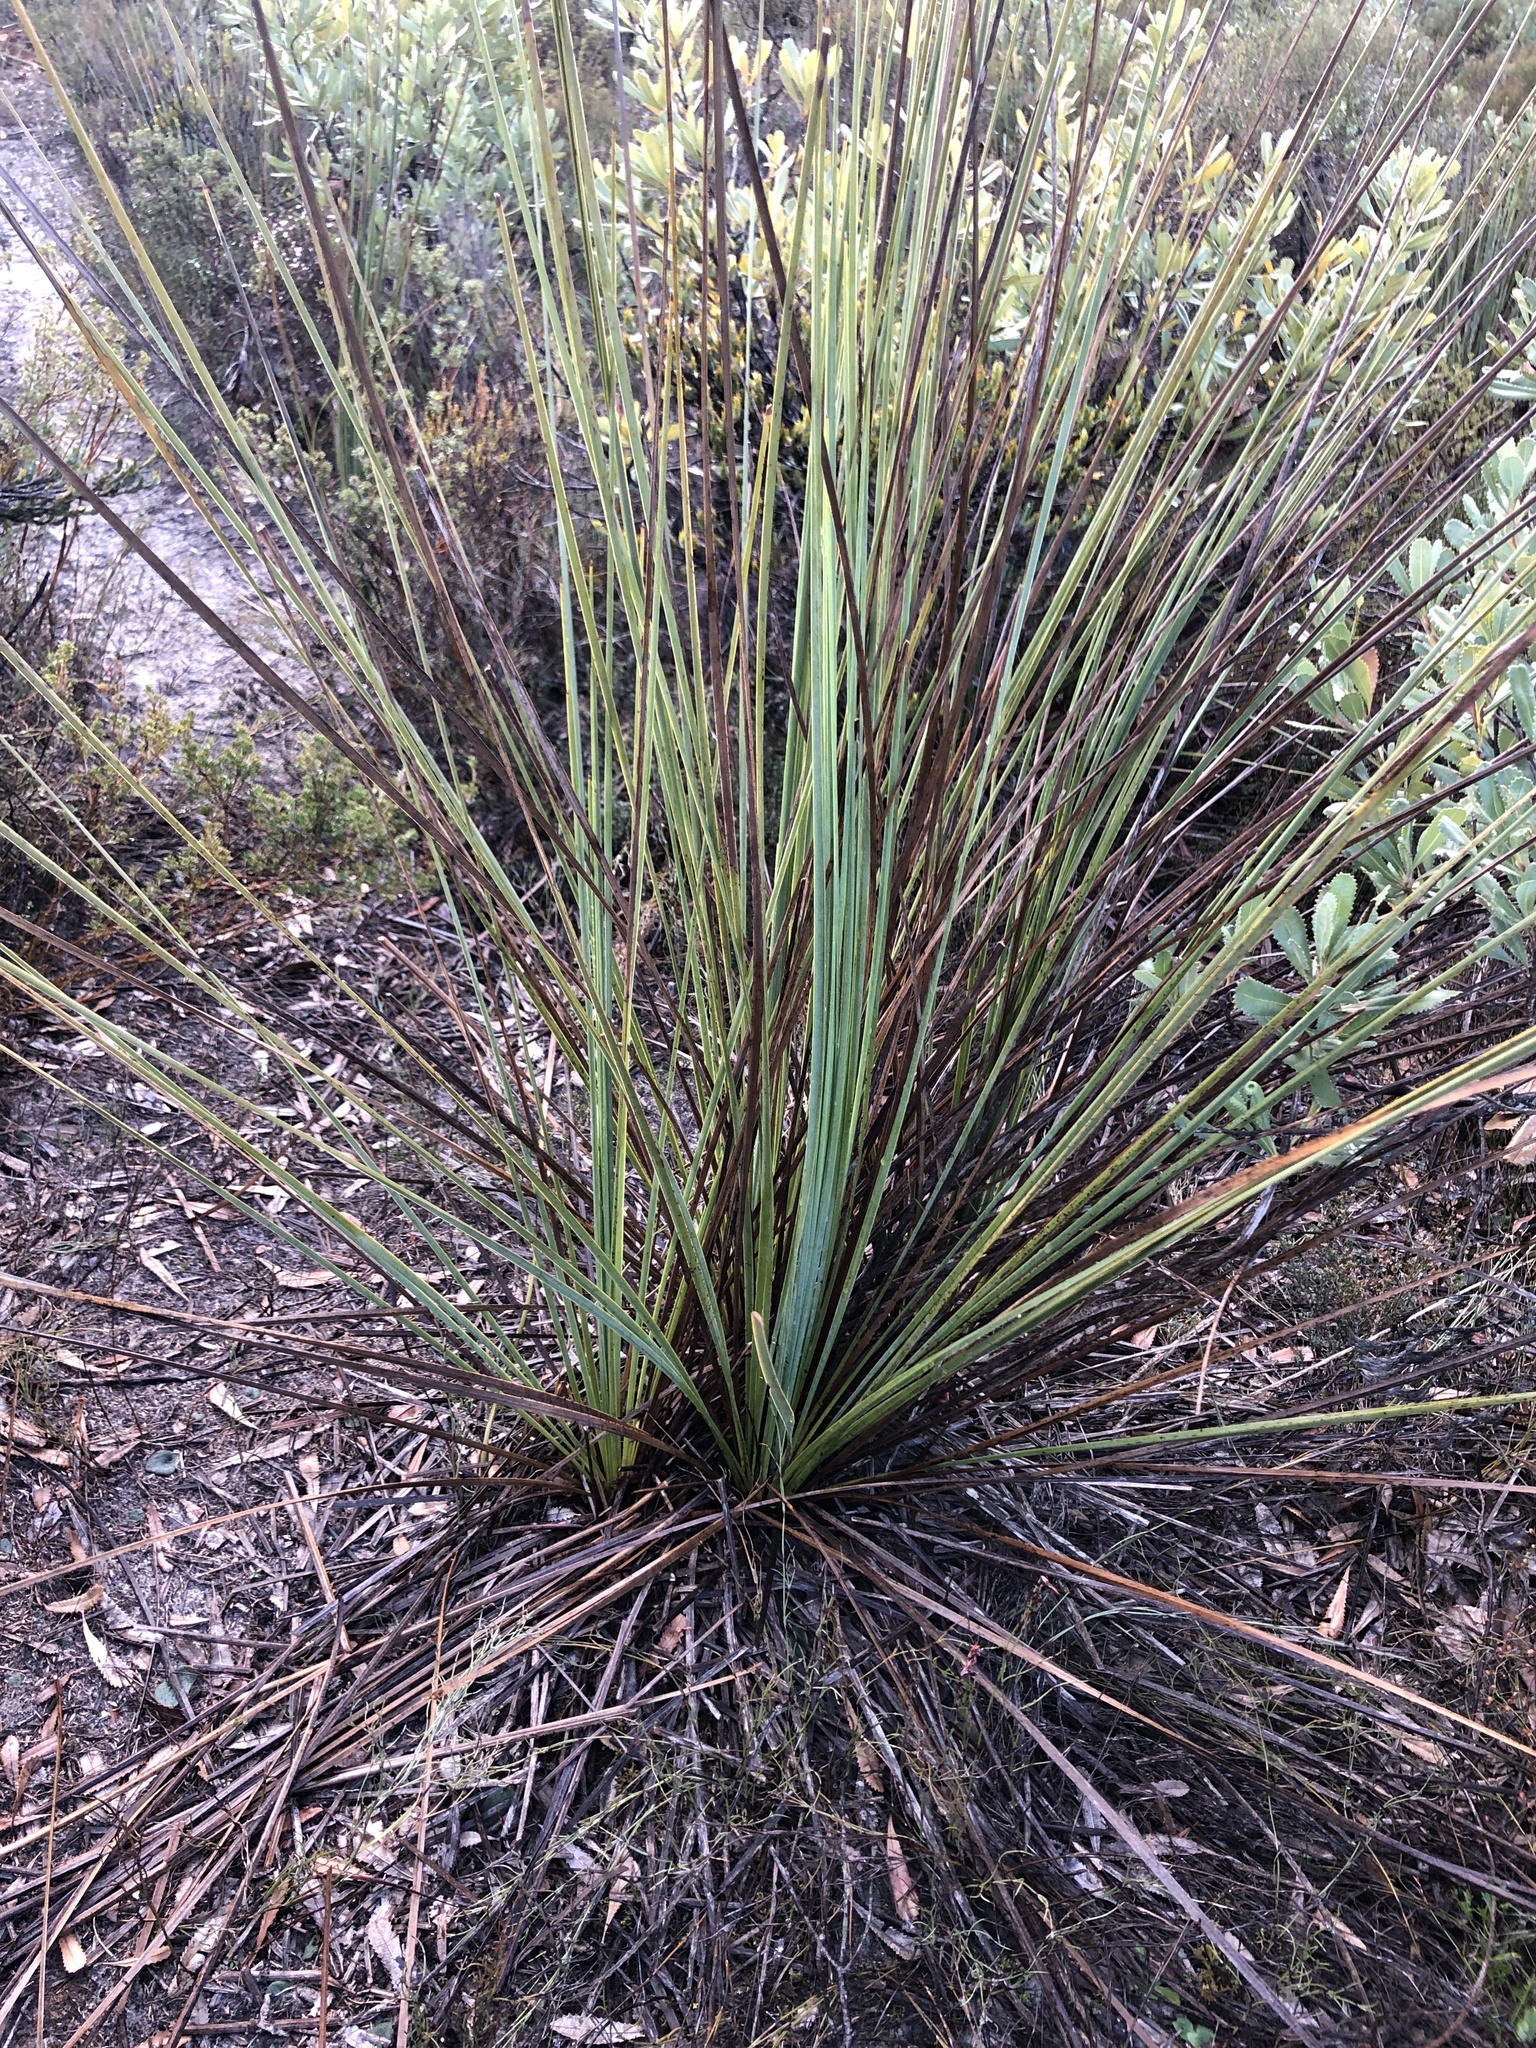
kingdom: Plantae
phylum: Tracheophyta
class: Liliopsida
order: Asparagales
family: Asphodelaceae
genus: Xanthorrhoea
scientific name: Xanthorrhoea caespitosa
